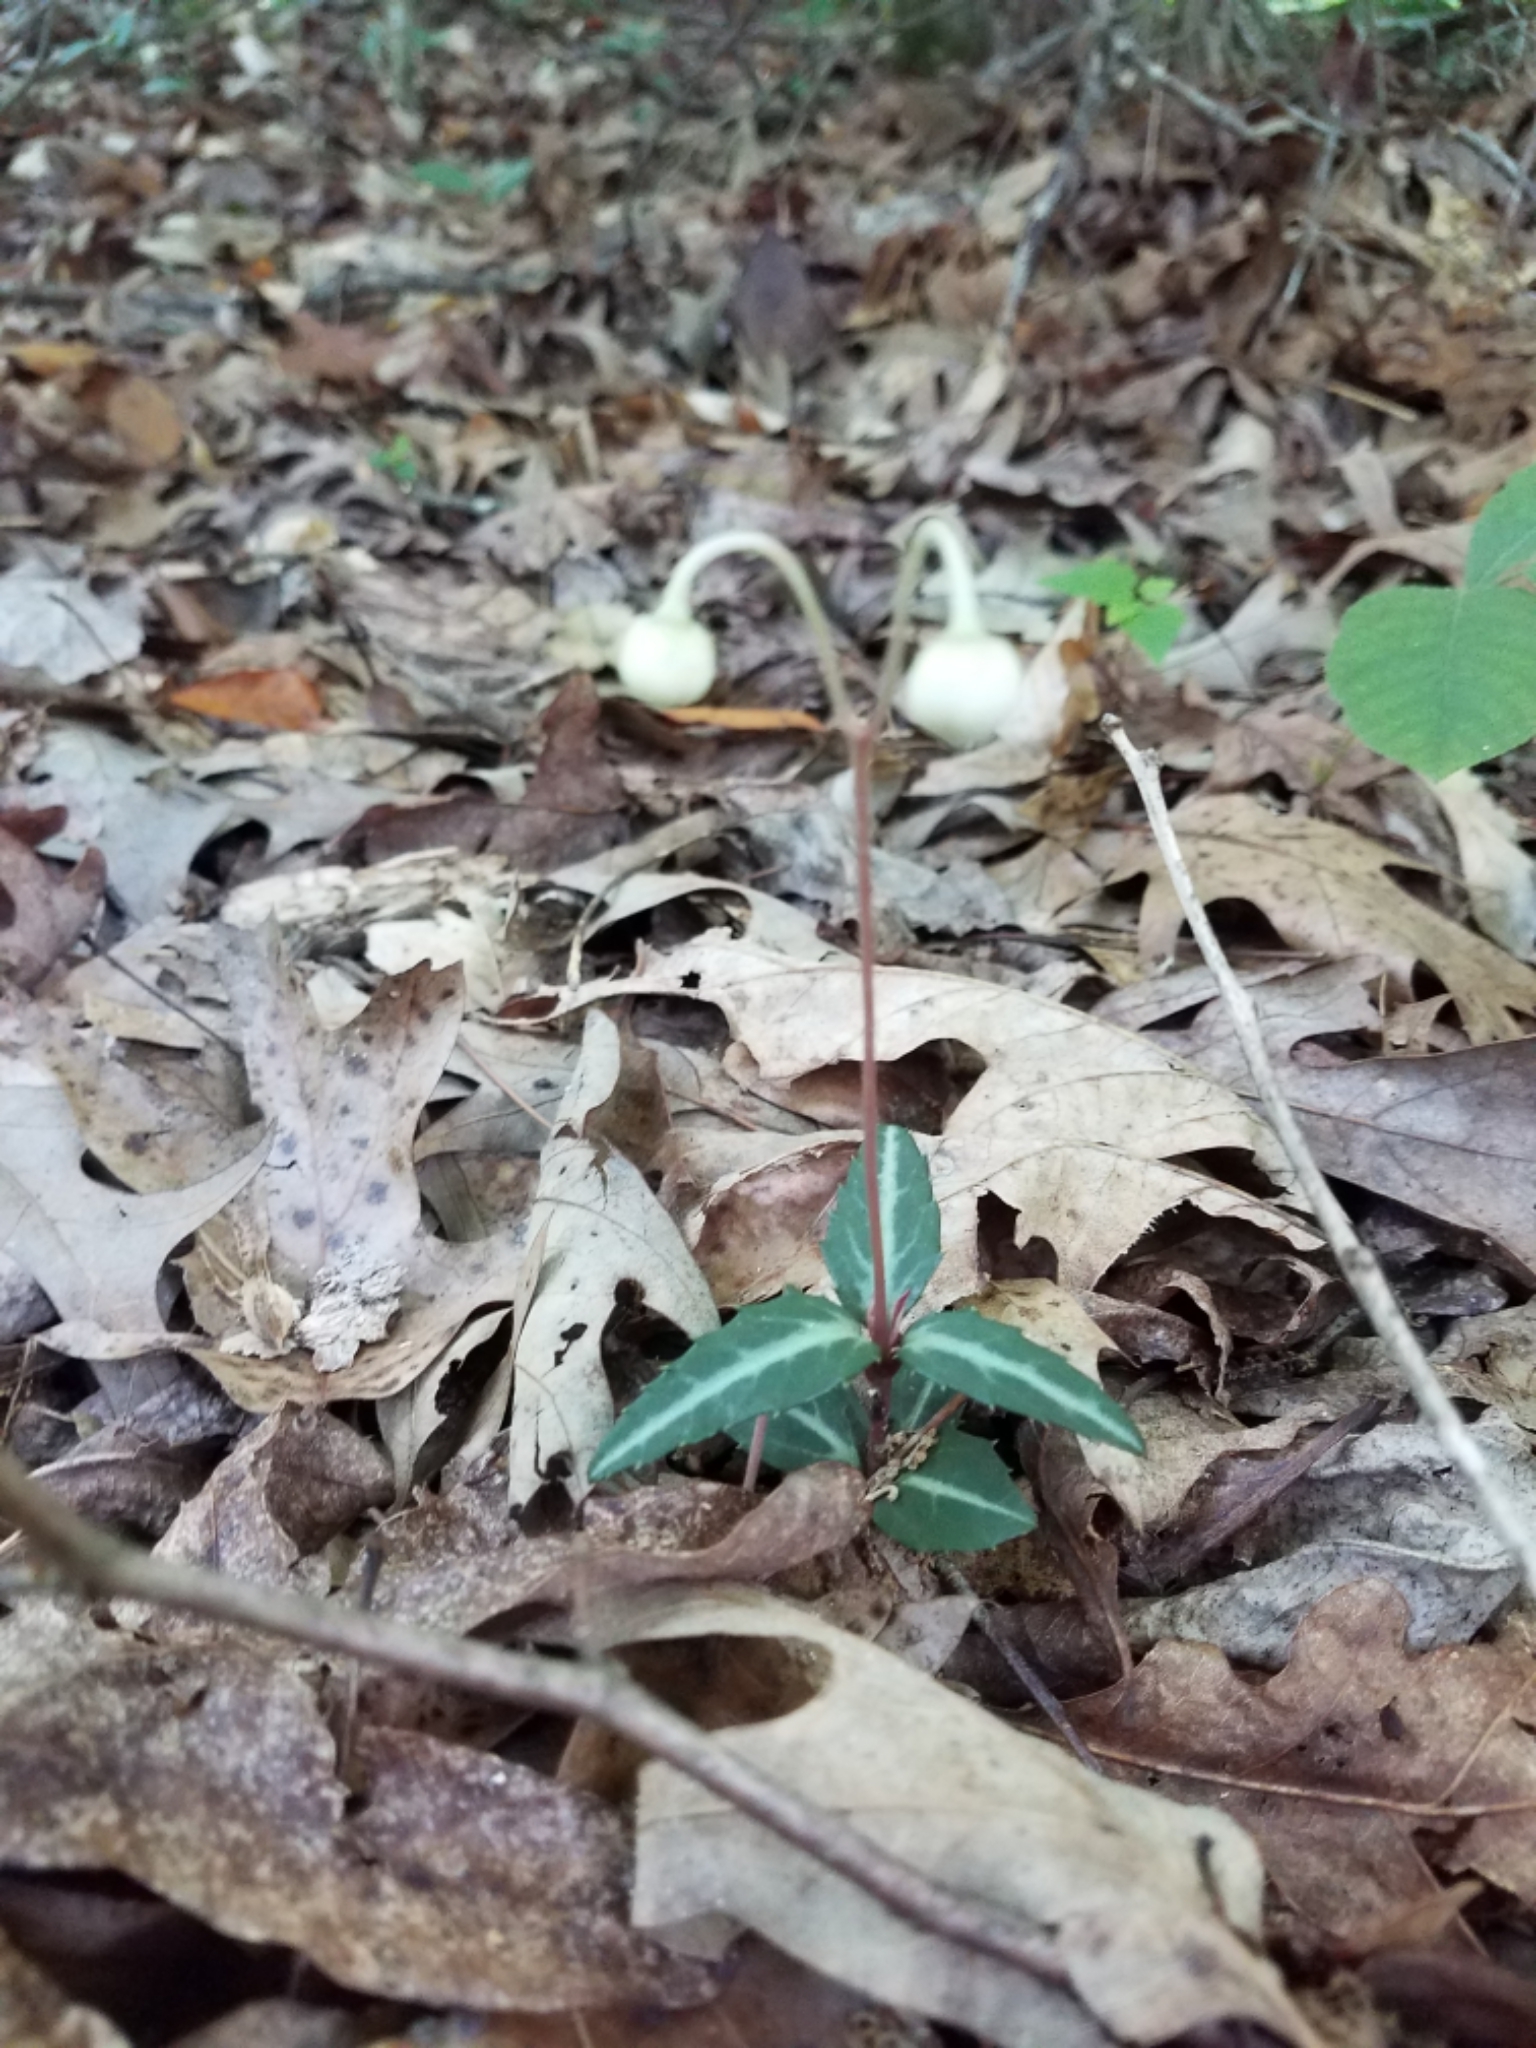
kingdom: Plantae
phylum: Tracheophyta
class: Magnoliopsida
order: Ericales
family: Ericaceae
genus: Chimaphila
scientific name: Chimaphila maculata
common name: Spotted pipsissewa
